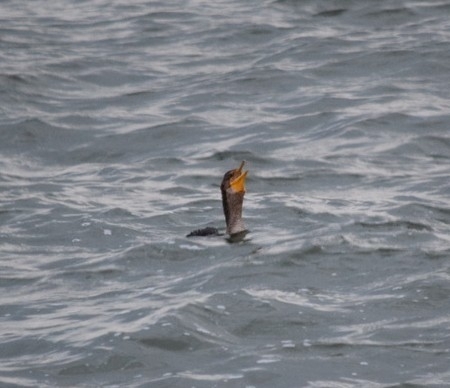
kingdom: Animalia
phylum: Chordata
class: Aves
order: Suliformes
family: Phalacrocoracidae
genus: Phalacrocorax
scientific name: Phalacrocorax auritus
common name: Double-crested cormorant
